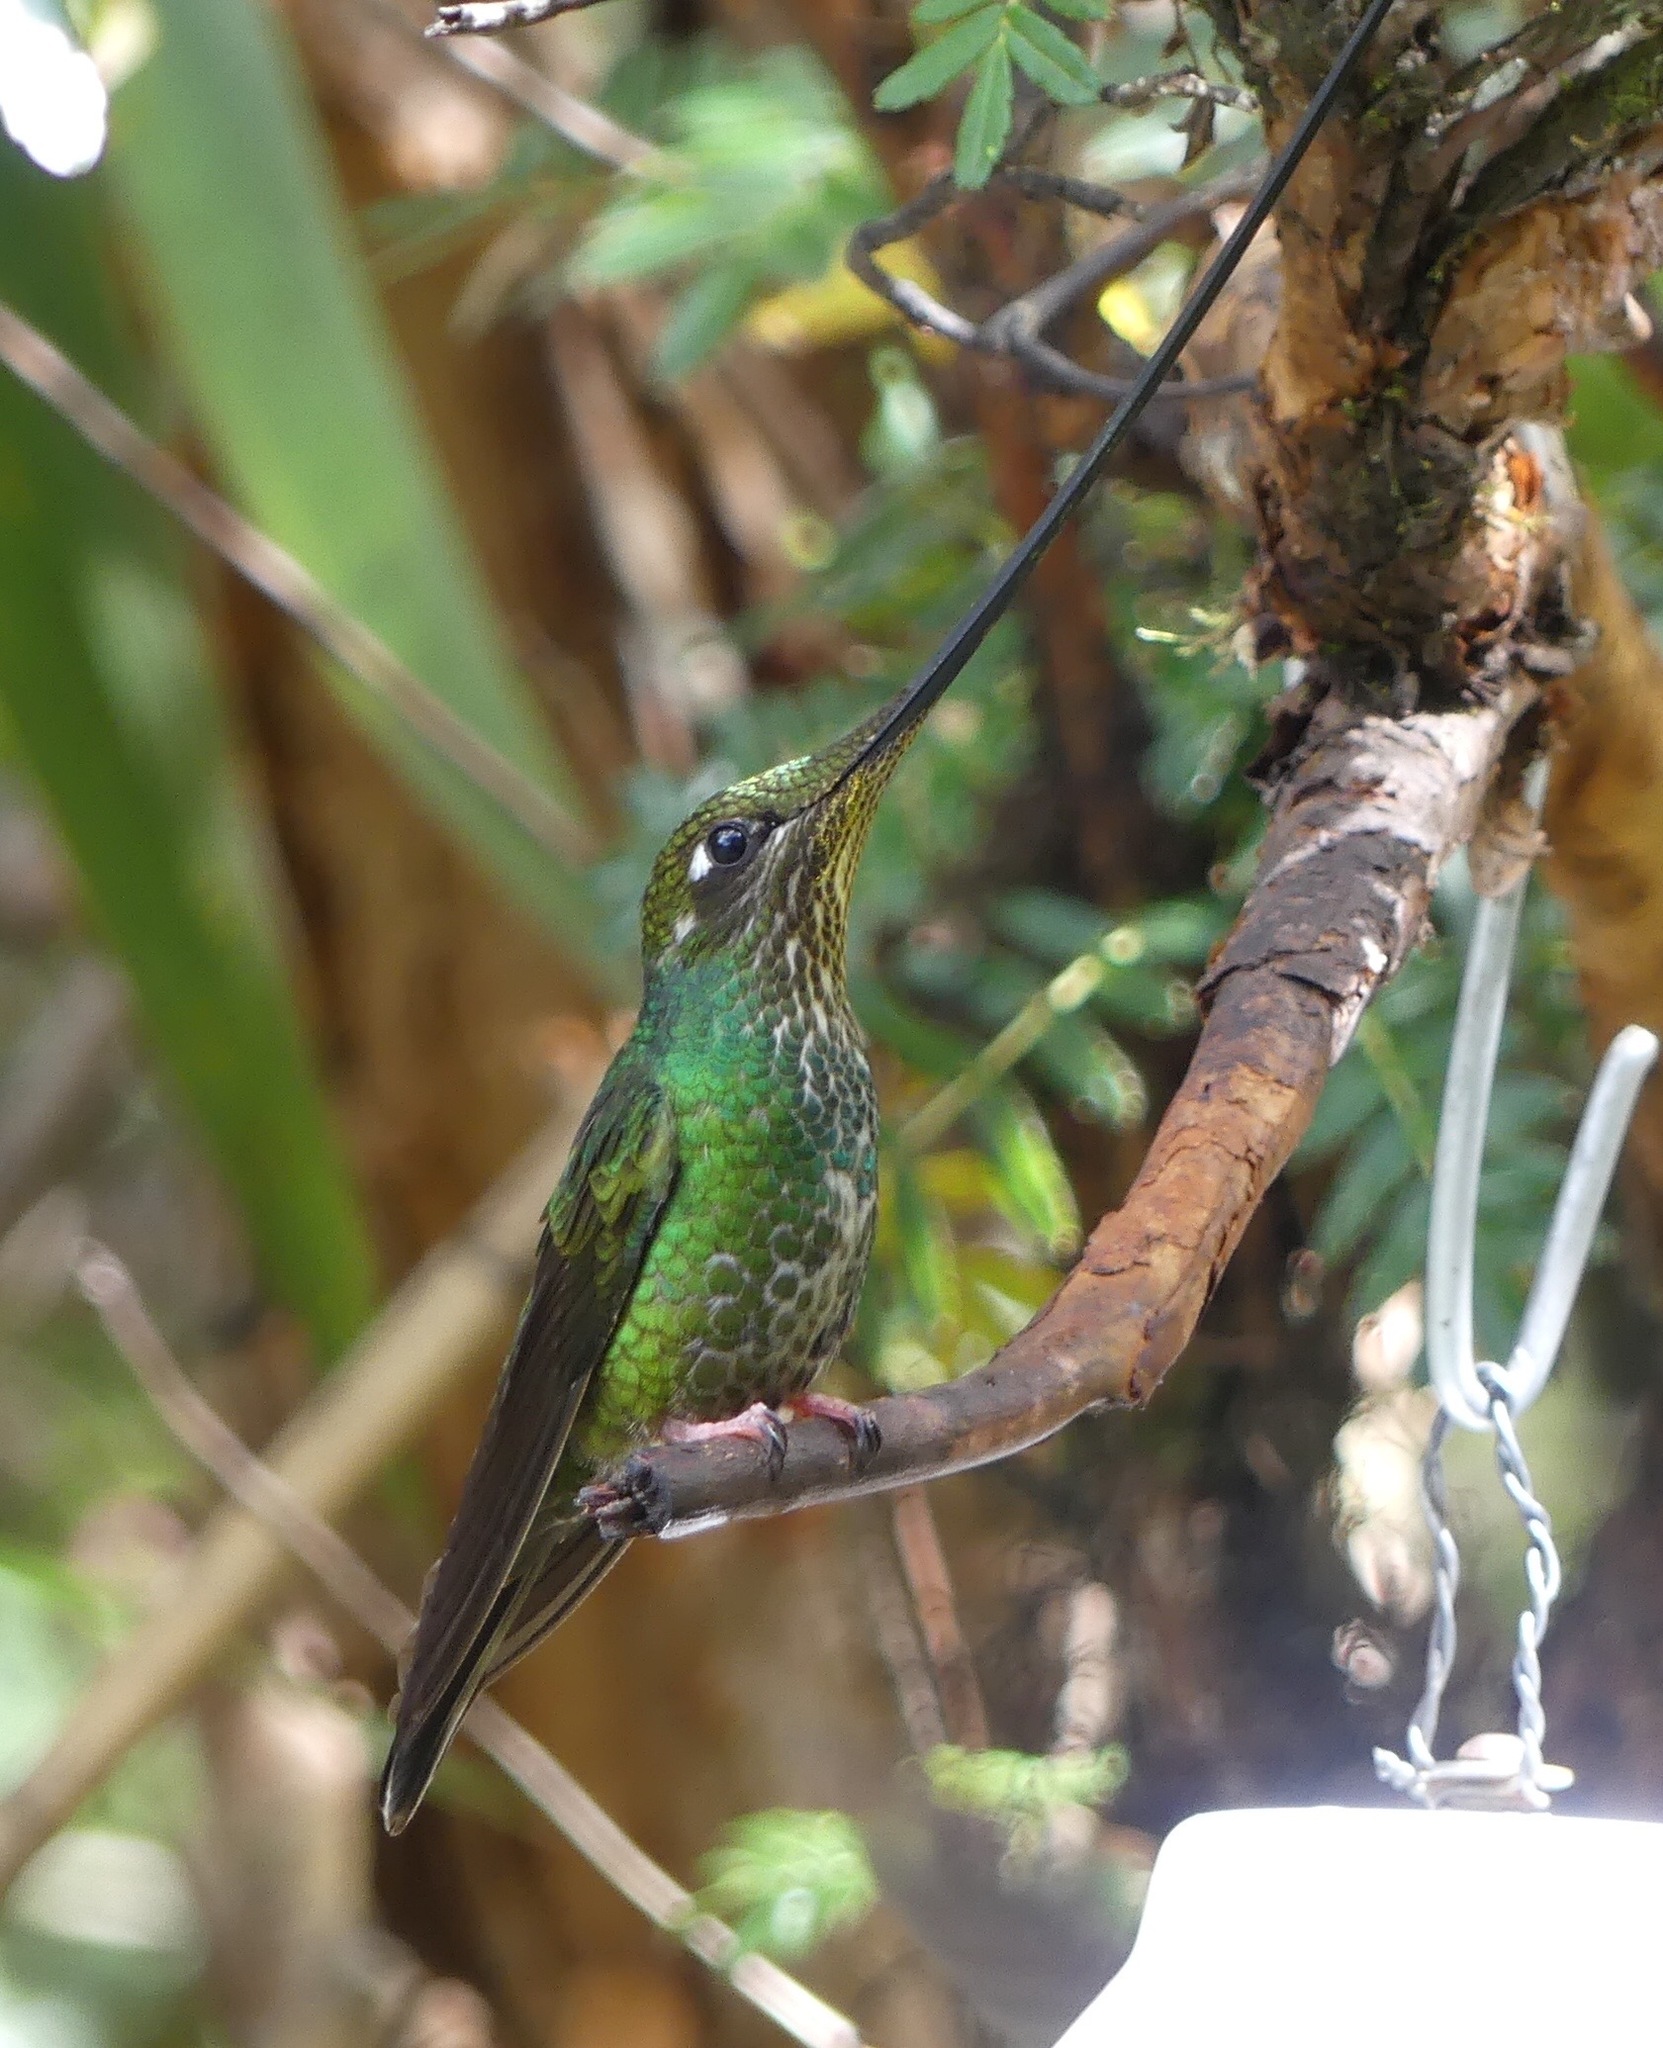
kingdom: Animalia
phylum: Chordata
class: Aves
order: Apodiformes
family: Trochilidae
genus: Ensifera
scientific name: Ensifera ensifera
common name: Sword-billed hummingbird
